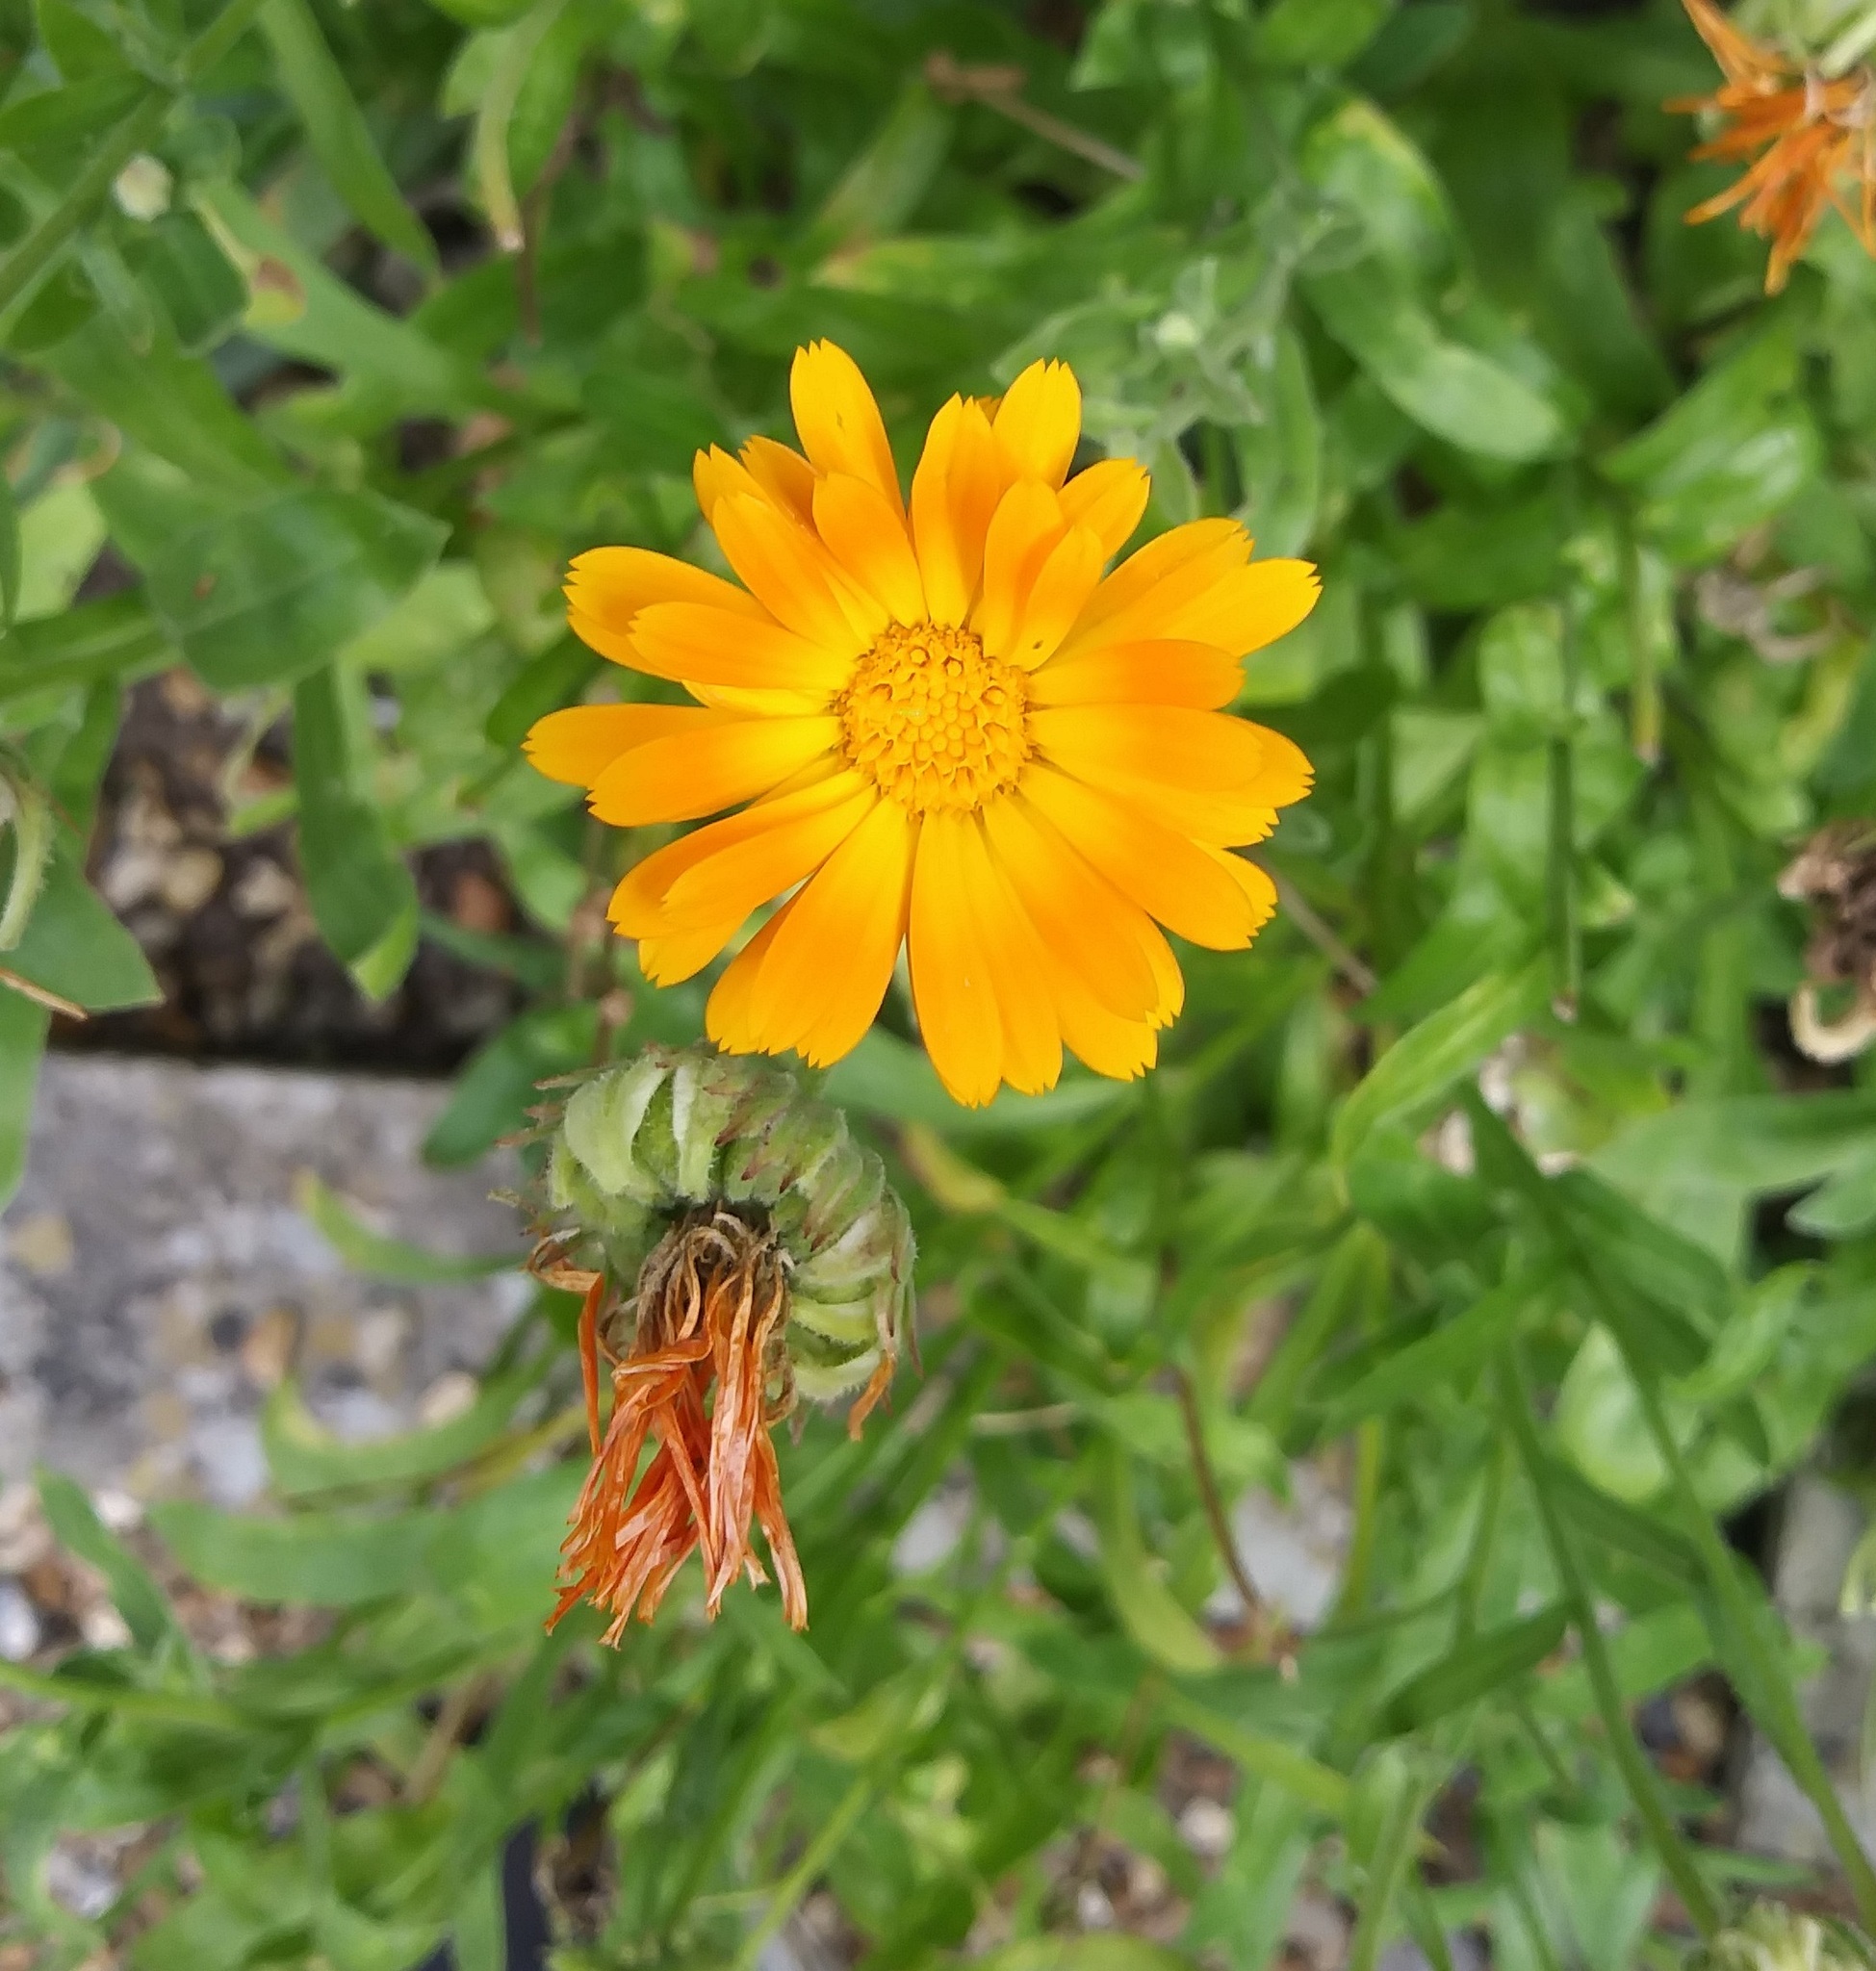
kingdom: Plantae
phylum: Tracheophyta
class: Magnoliopsida
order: Asterales
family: Asteraceae
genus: Calendula
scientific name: Calendula officinalis
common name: Pot marigold
